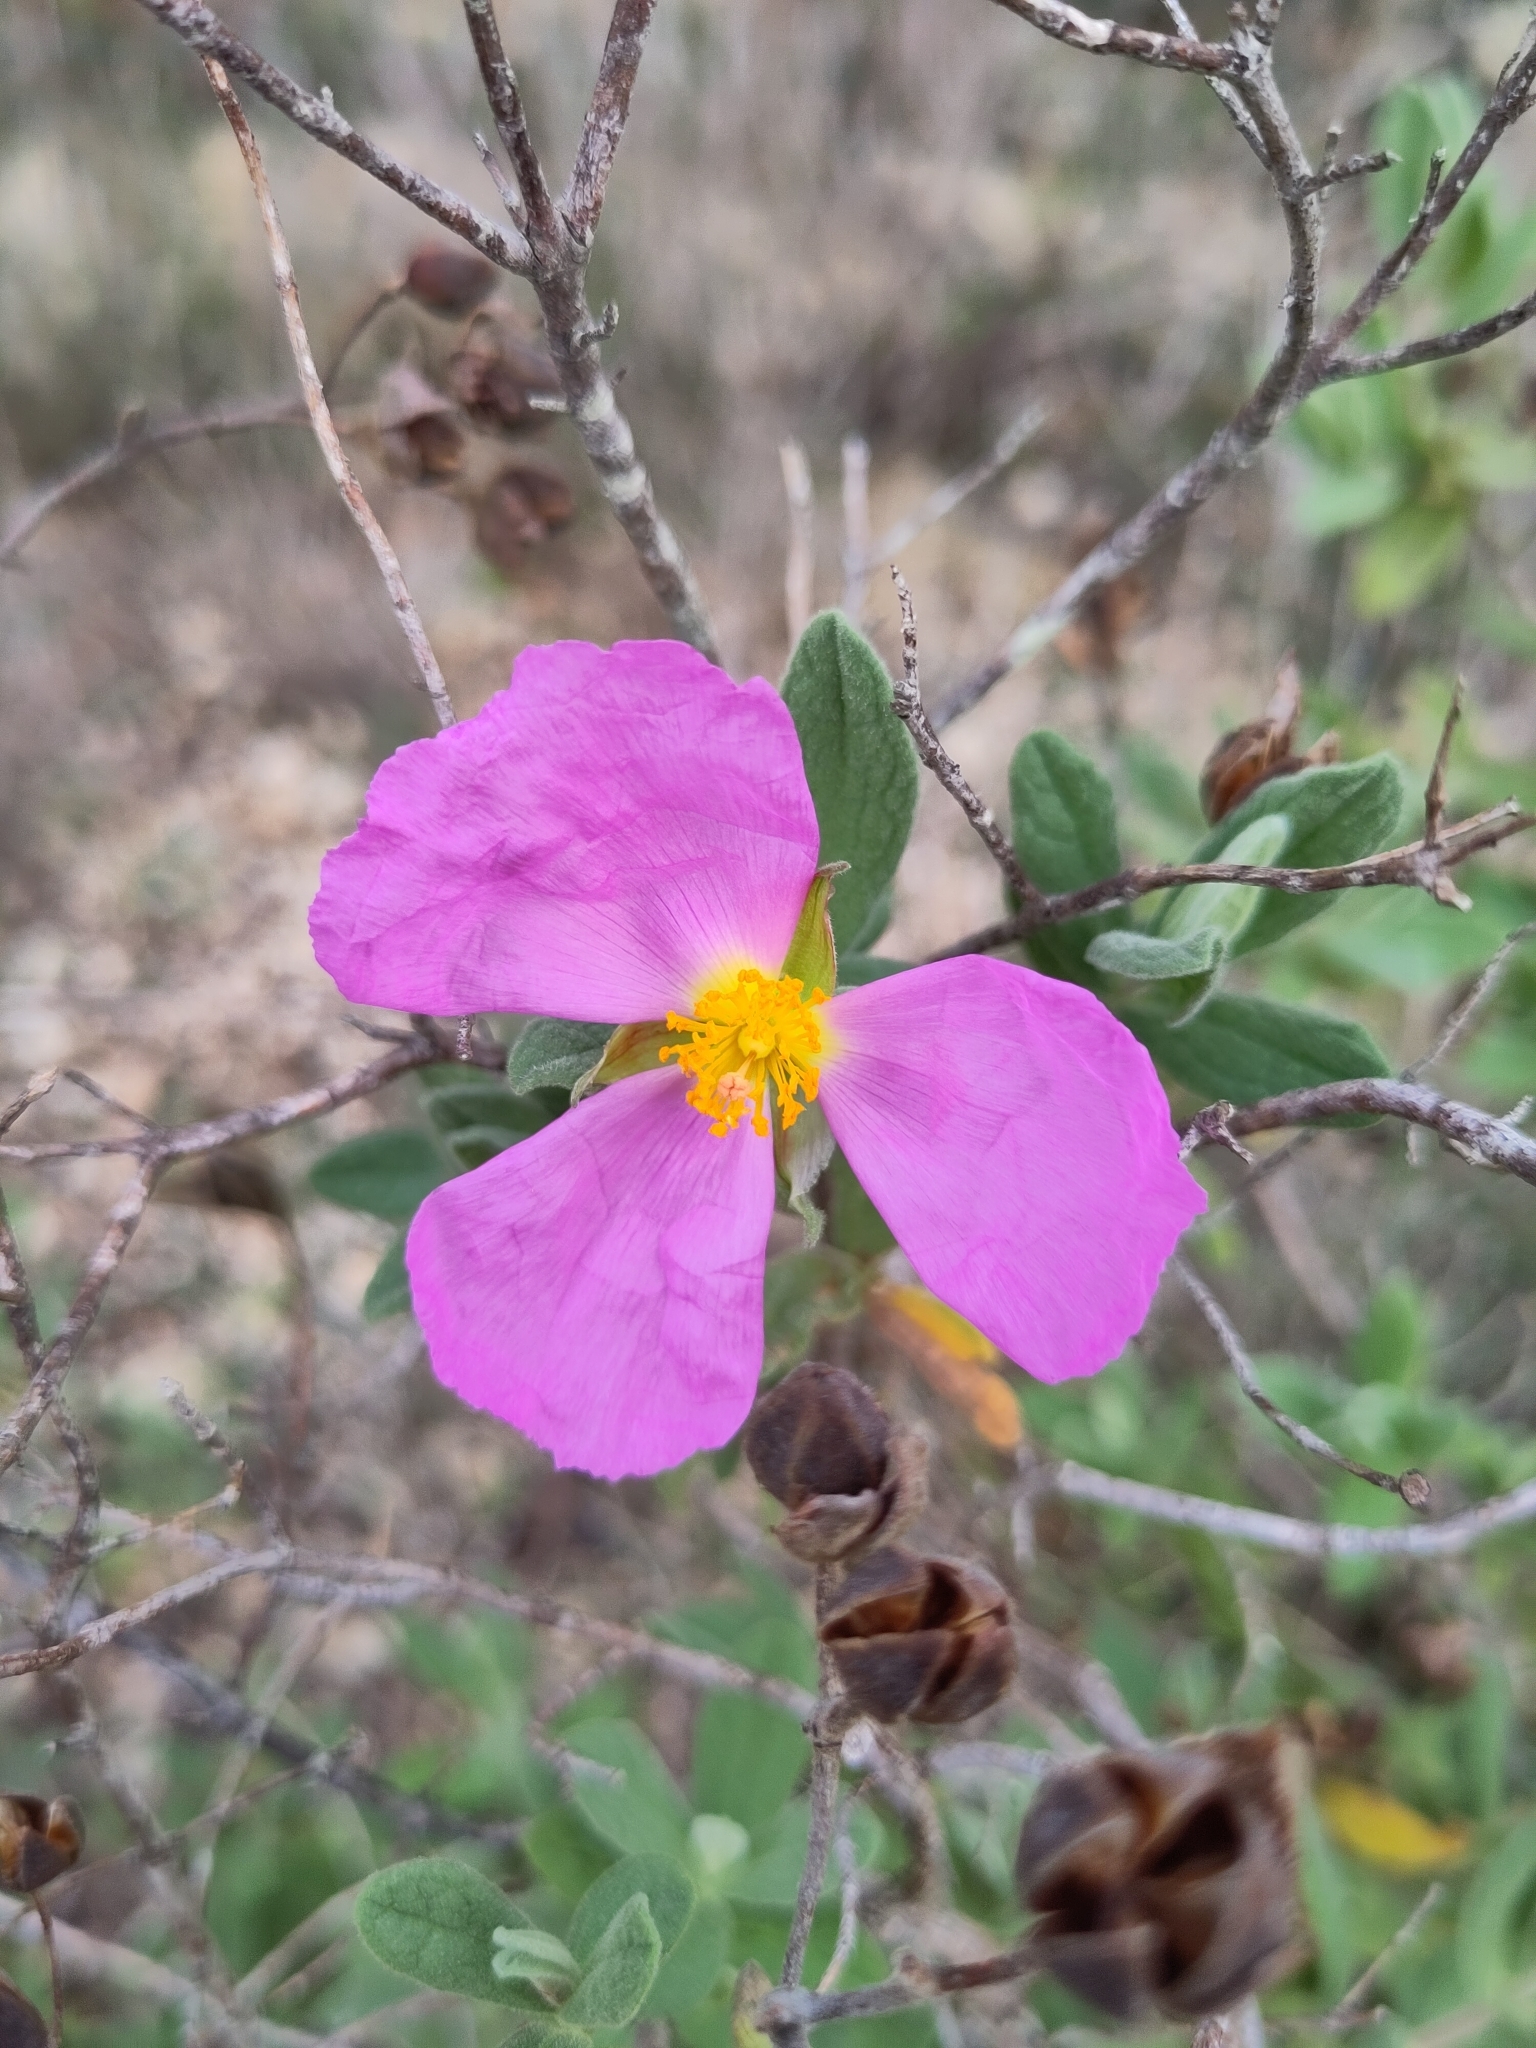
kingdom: Plantae
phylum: Tracheophyta
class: Magnoliopsida
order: Malvales
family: Cistaceae
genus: Cistus
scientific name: Cistus albidus
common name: White-leaf rock-rose
